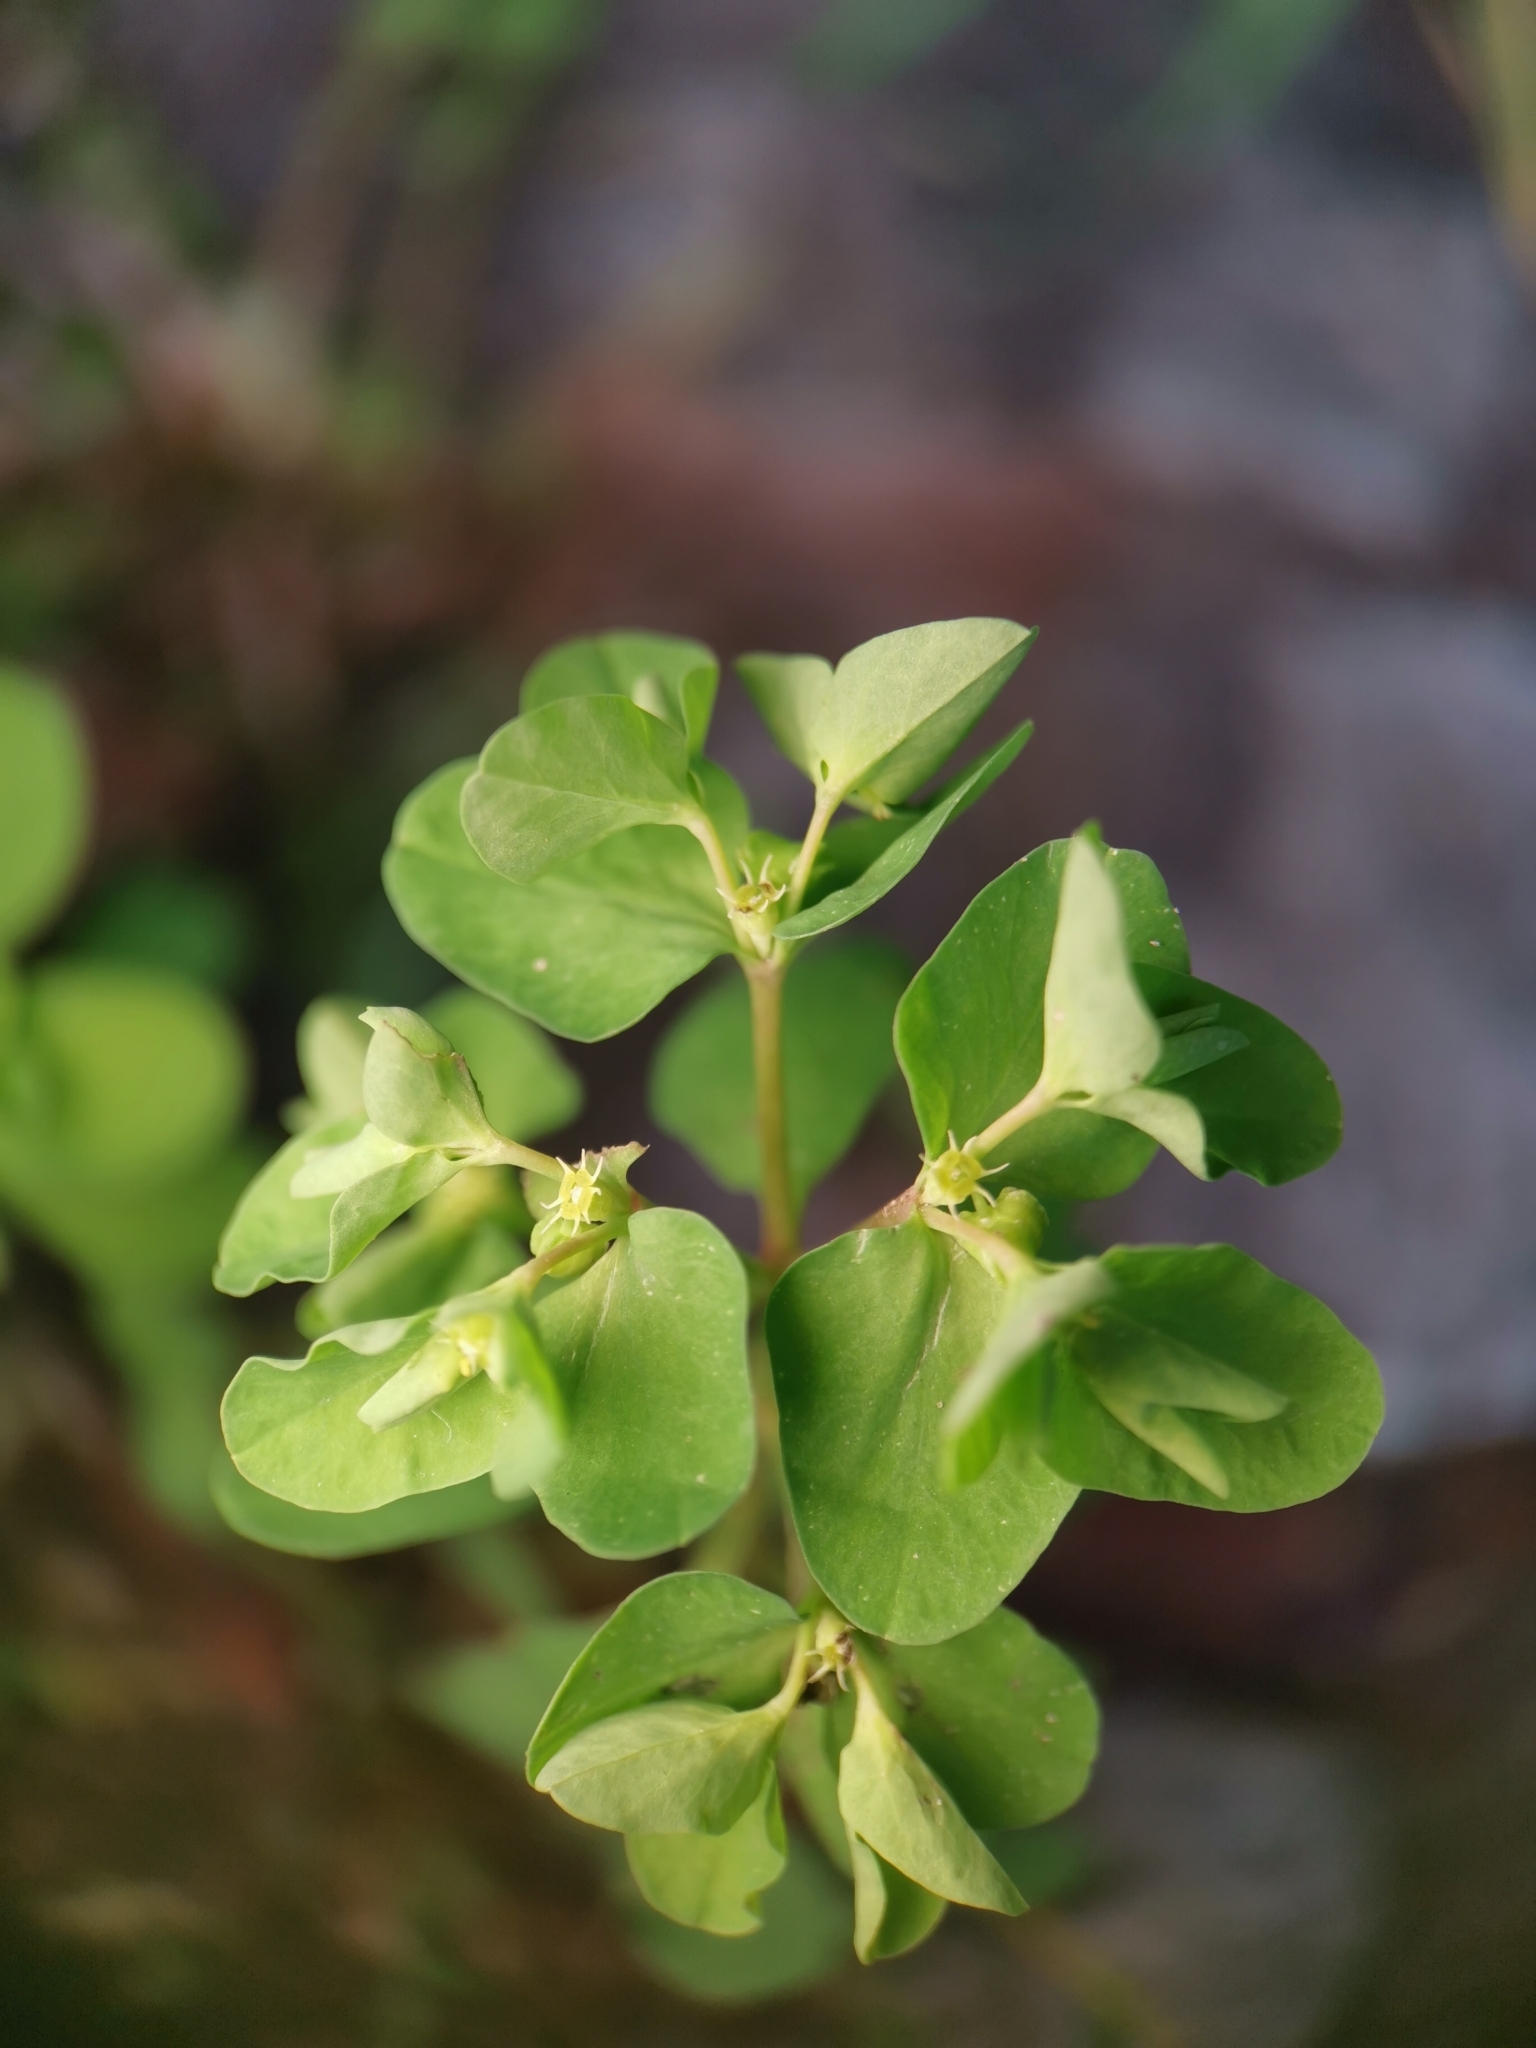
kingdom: Plantae
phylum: Tracheophyta
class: Magnoliopsida
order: Malpighiales
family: Euphorbiaceae
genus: Euphorbia
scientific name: Euphorbia peplus
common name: Petty spurge
